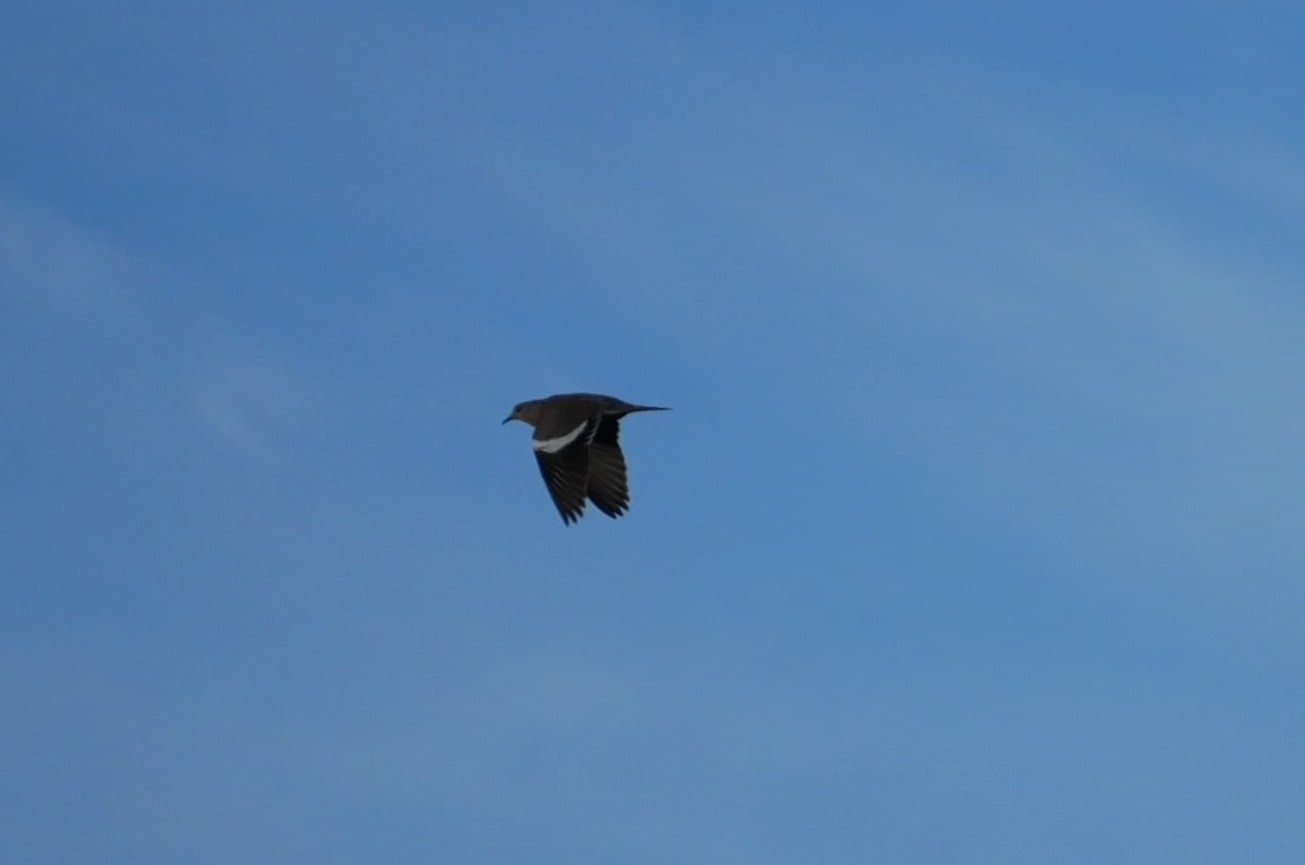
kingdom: Animalia
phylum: Chordata
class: Aves
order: Columbiformes
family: Columbidae
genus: Zenaida
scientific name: Zenaida asiatica
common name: White-winged dove
